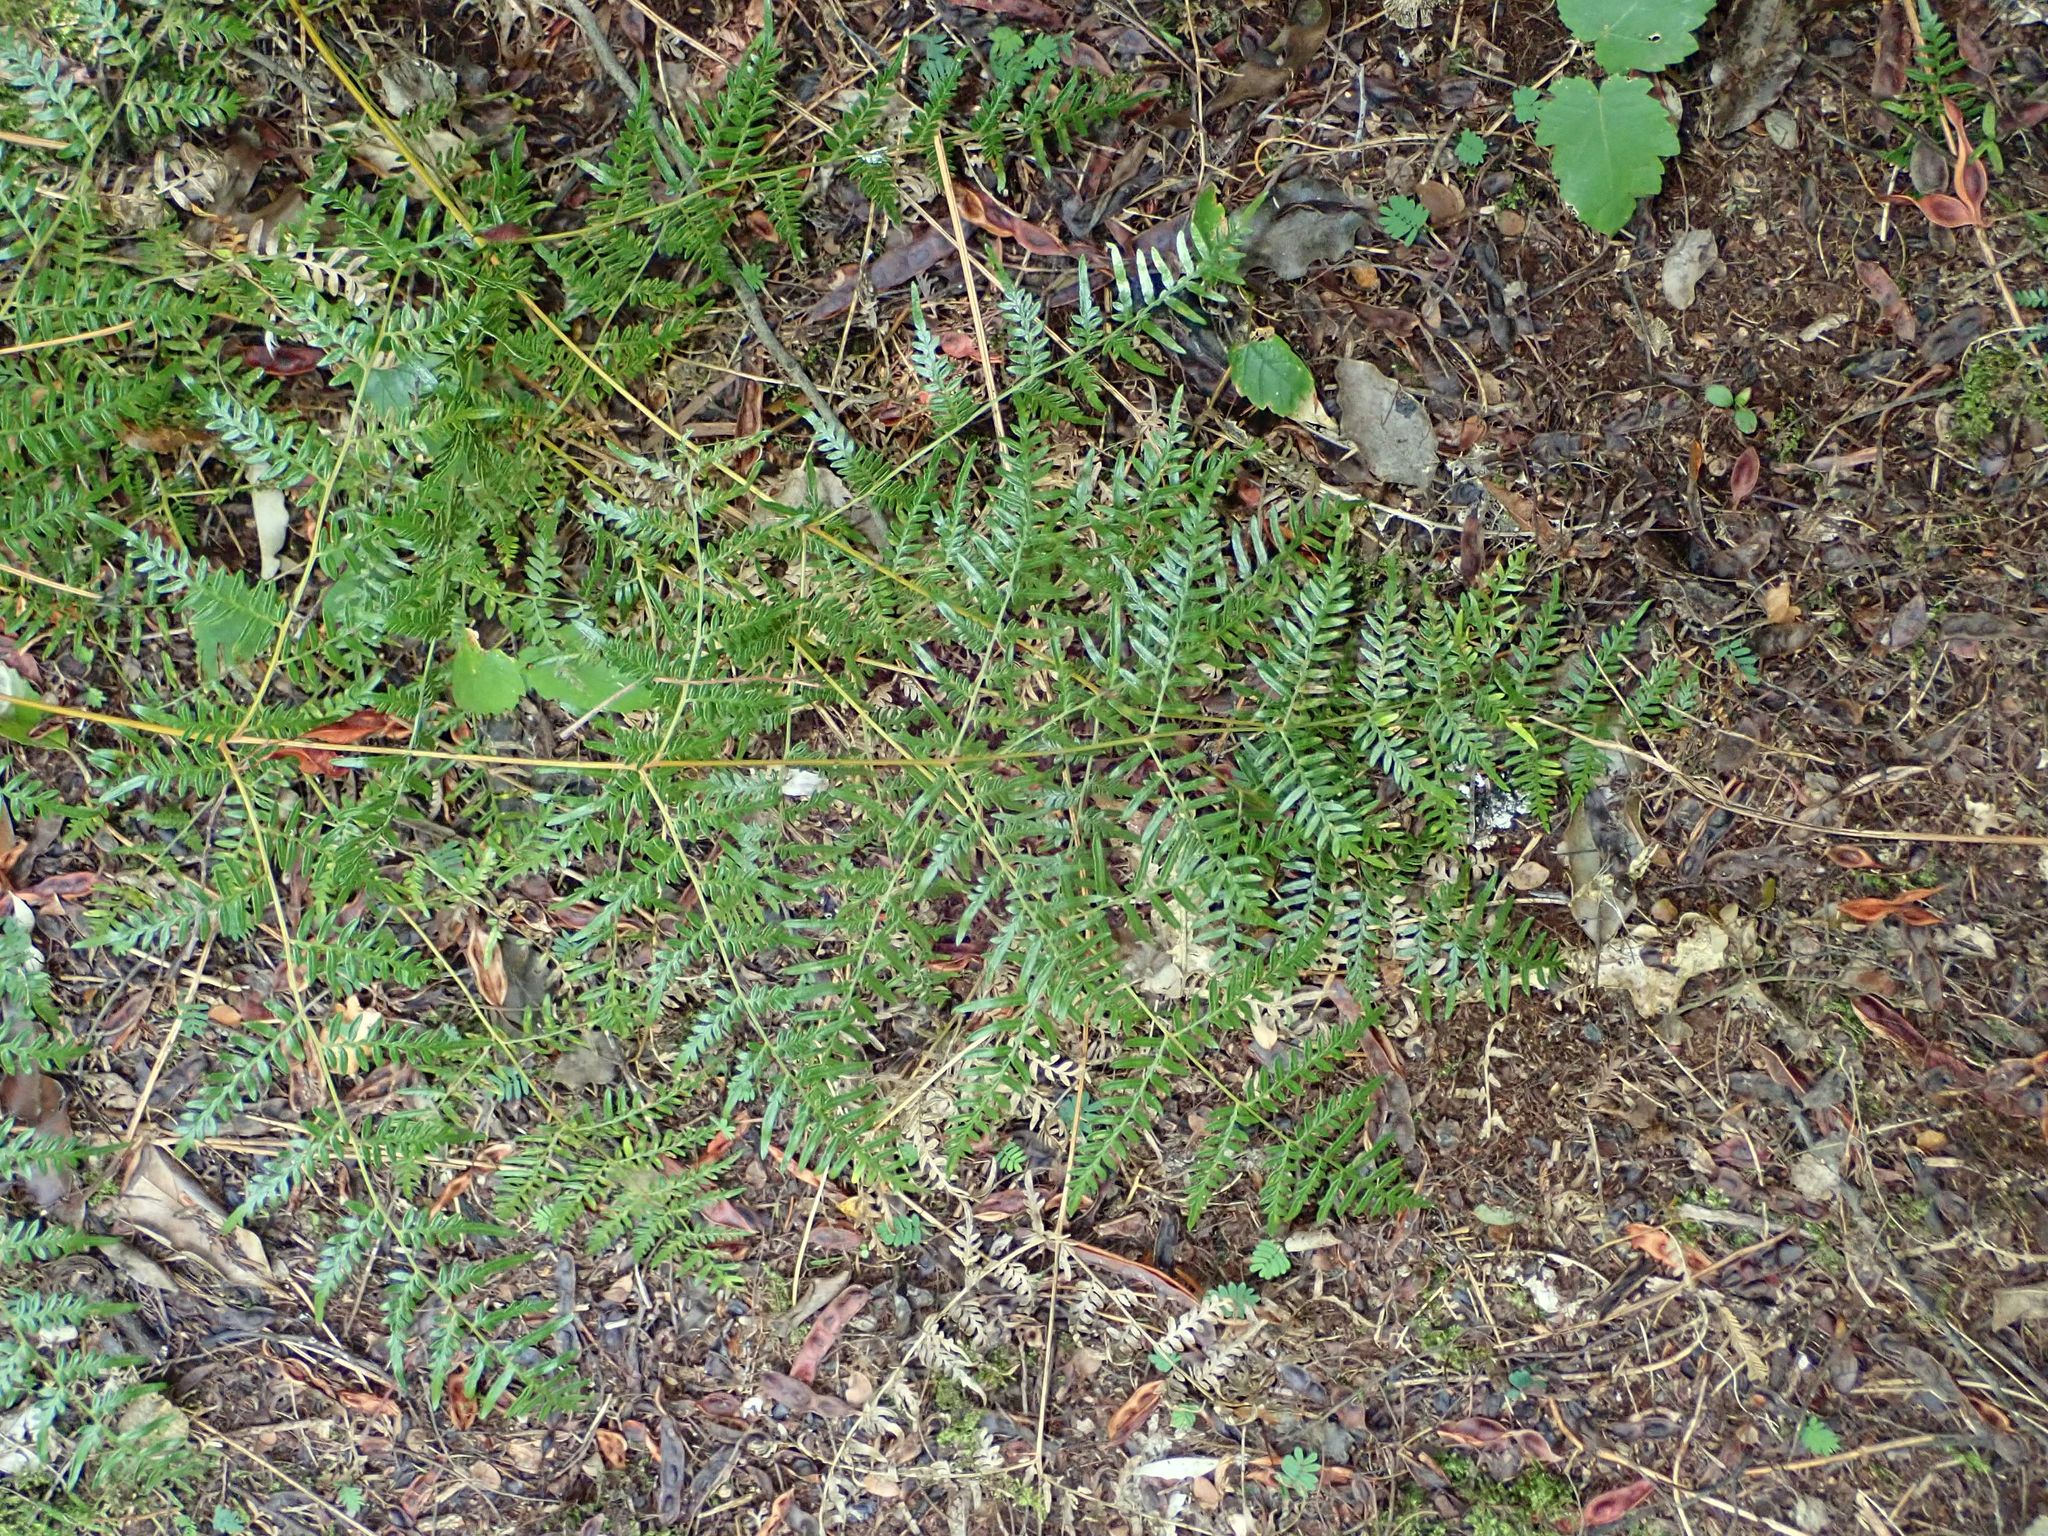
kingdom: Plantae
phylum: Tracheophyta
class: Polypodiopsida
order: Polypodiales
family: Dennstaedtiaceae
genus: Pteridium
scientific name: Pteridium esculentum
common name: Bracken fern
